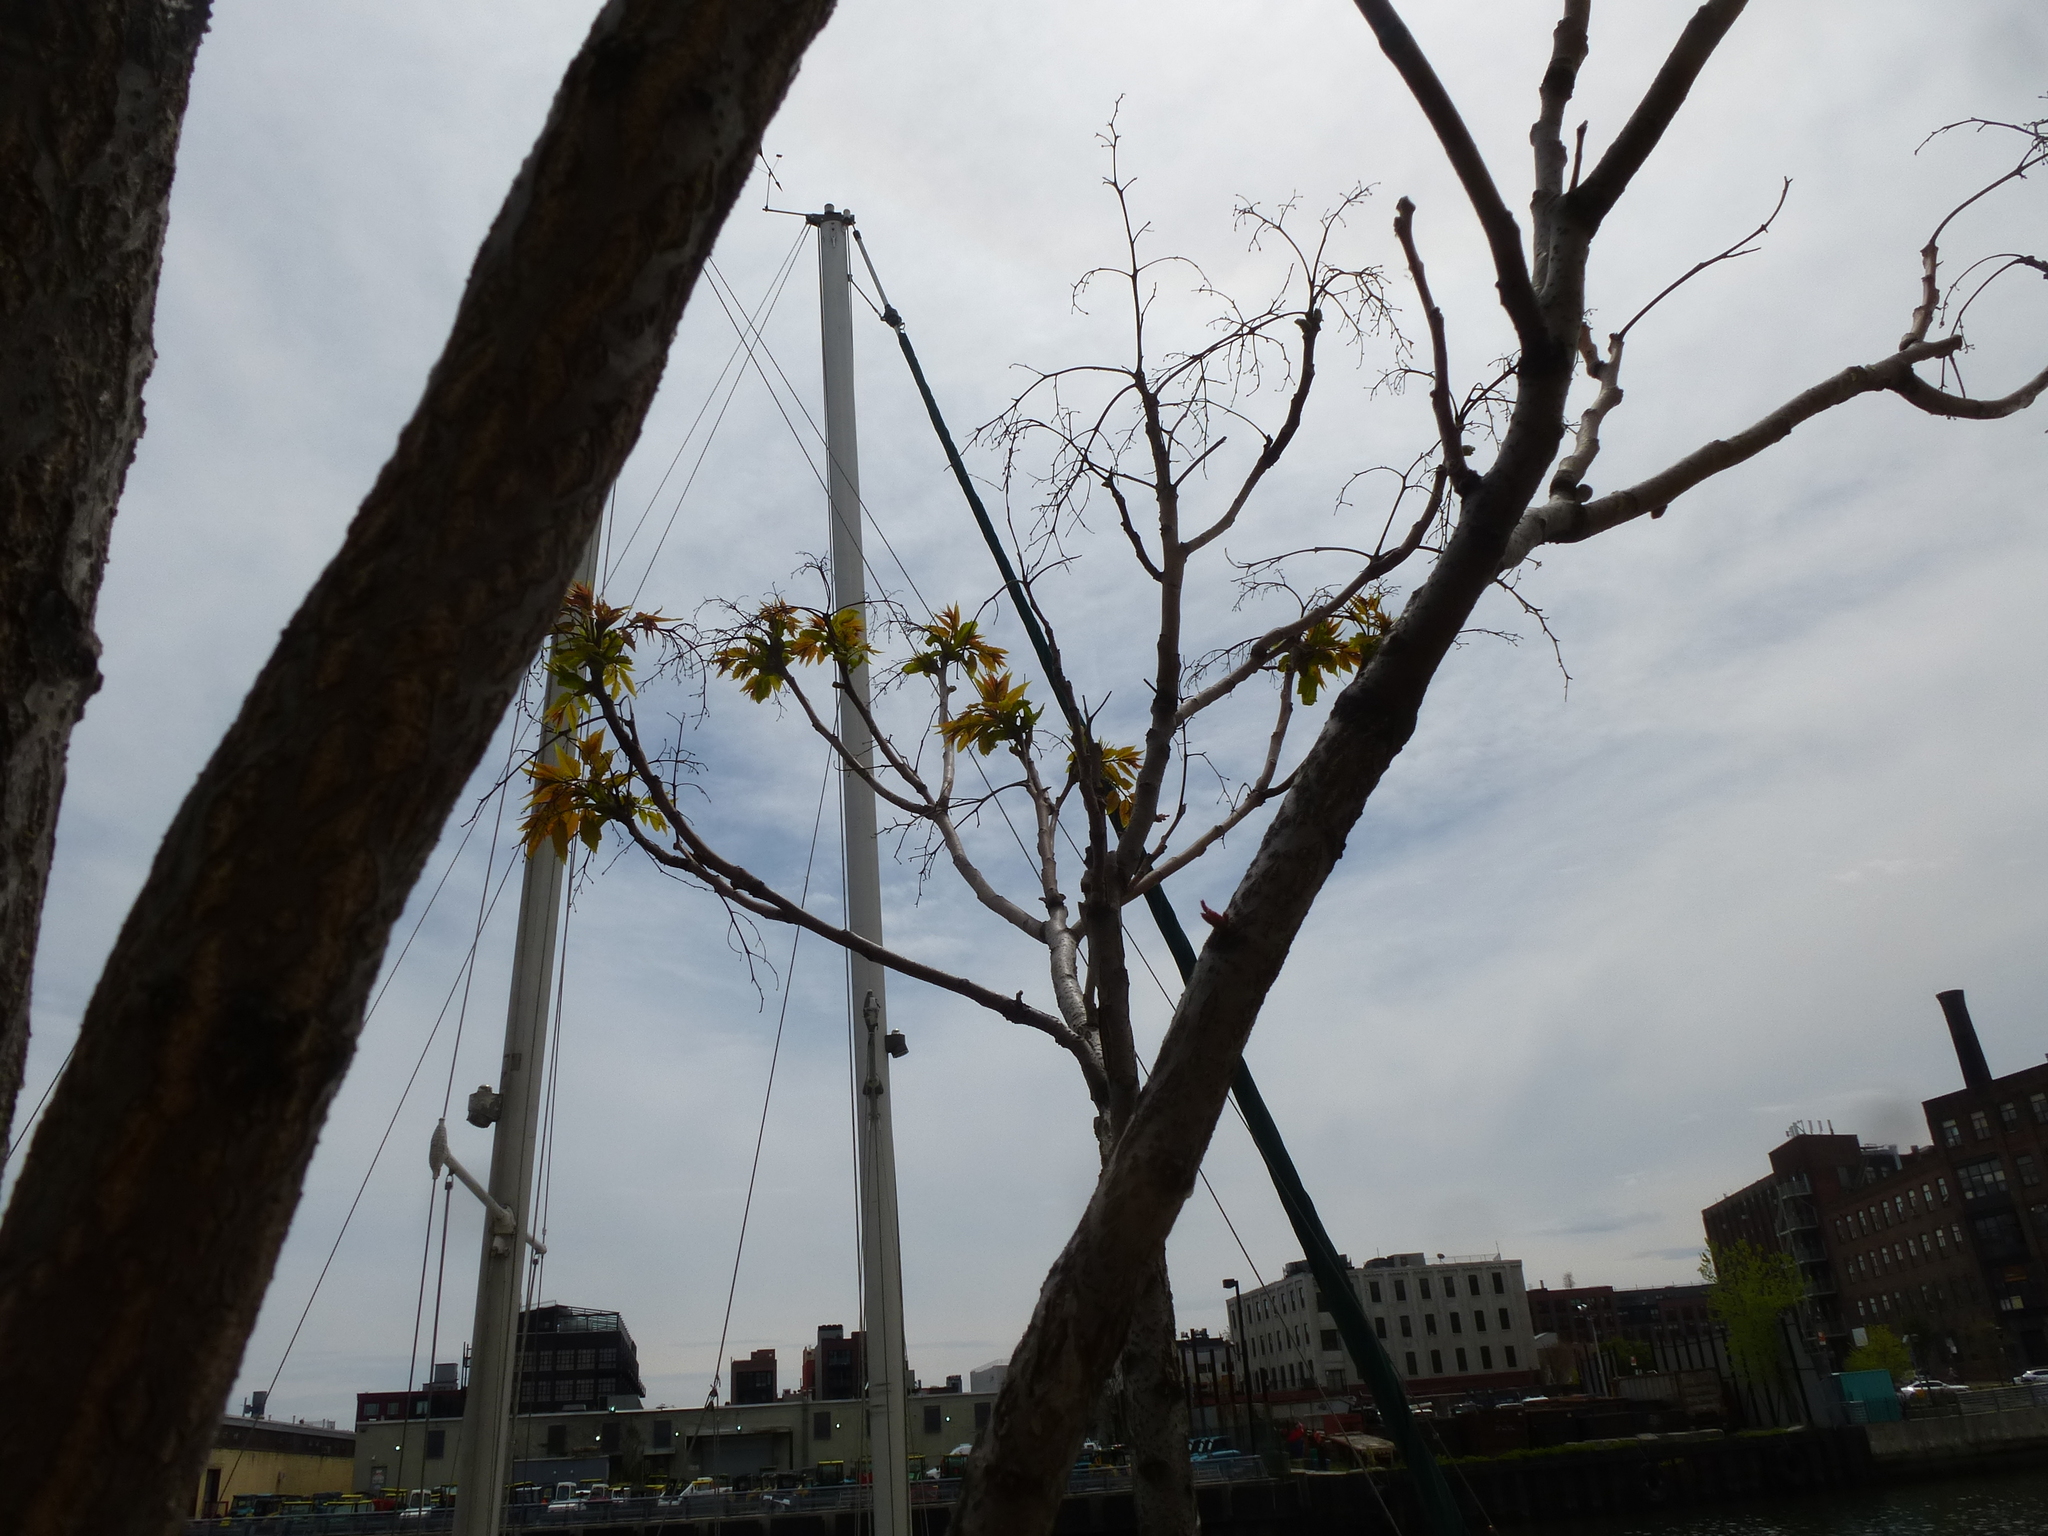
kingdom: Plantae
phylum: Tracheophyta
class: Magnoliopsida
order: Sapindales
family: Simaroubaceae
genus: Ailanthus
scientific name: Ailanthus altissima
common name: Tree-of-heaven
